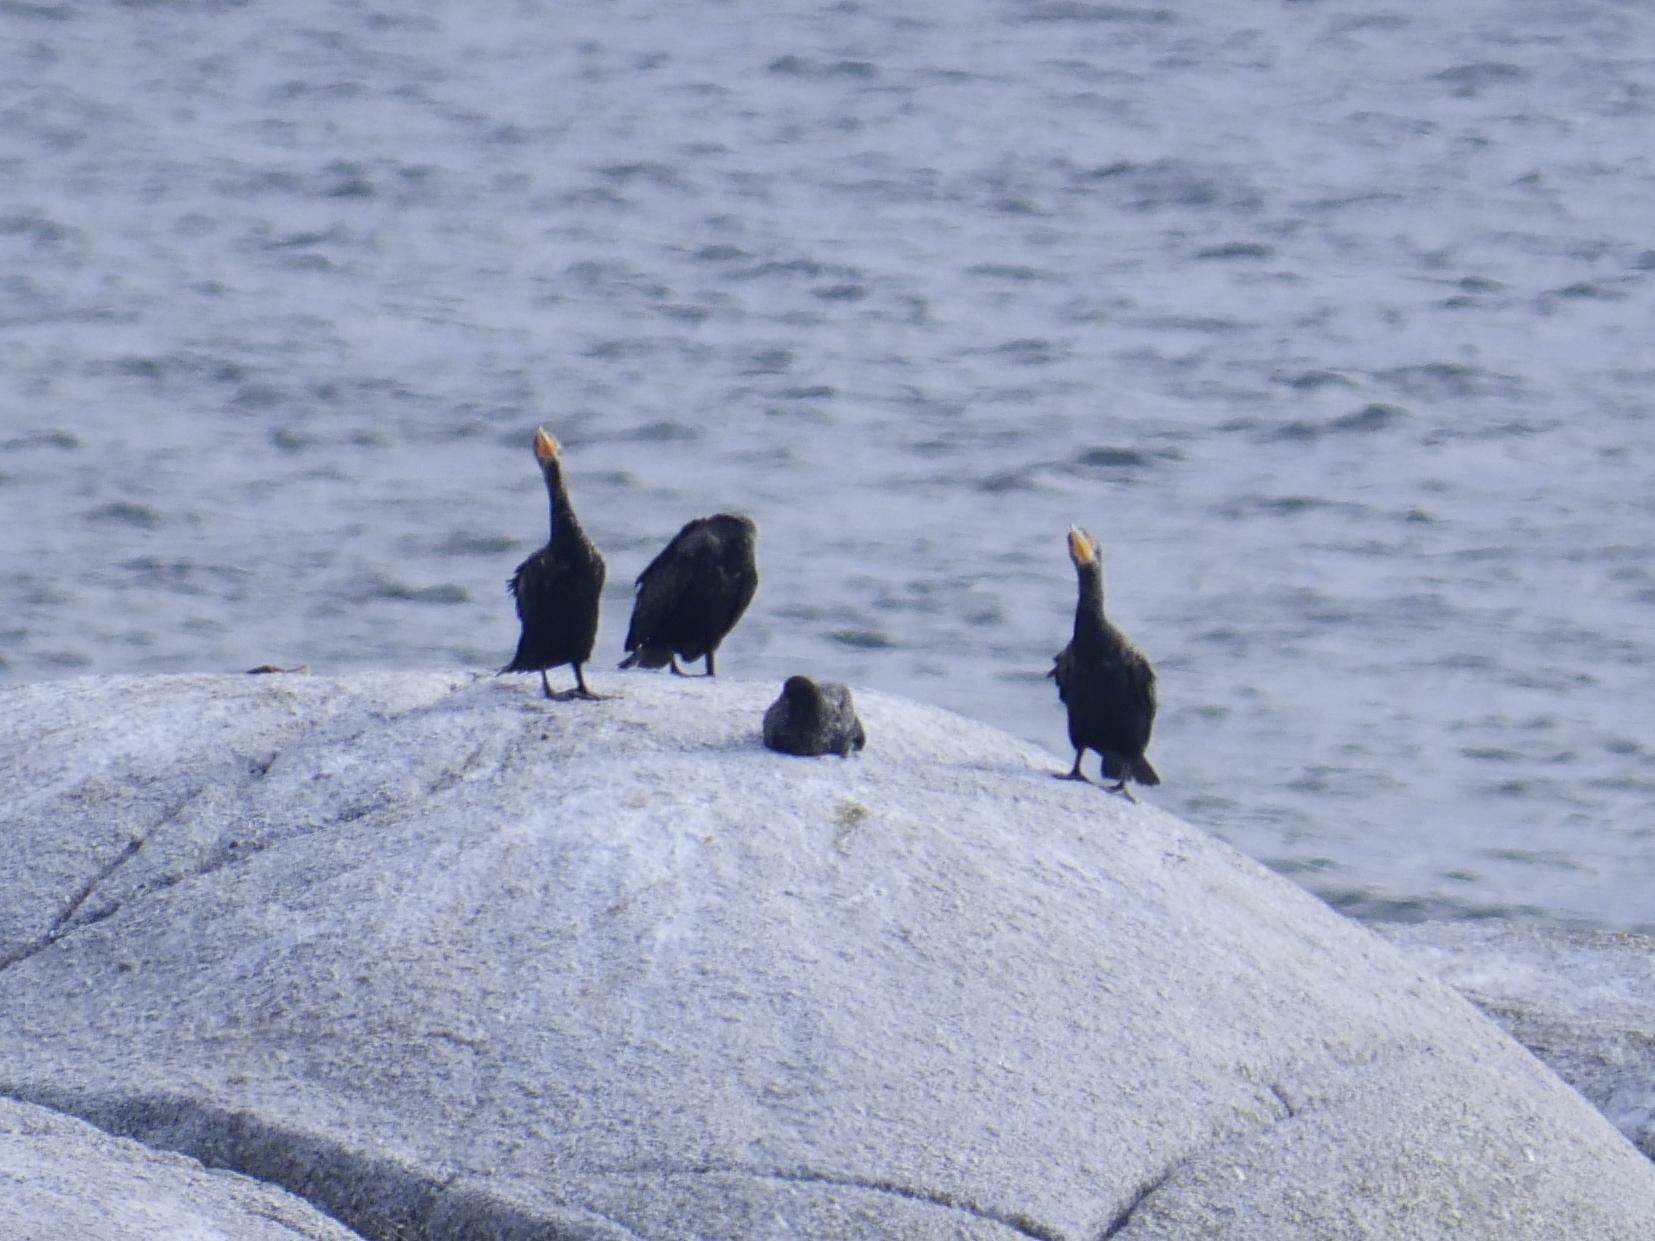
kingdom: Animalia
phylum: Chordata
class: Aves
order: Suliformes
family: Phalacrocoracidae
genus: Phalacrocorax
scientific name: Phalacrocorax auritus
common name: Double-crested cormorant
